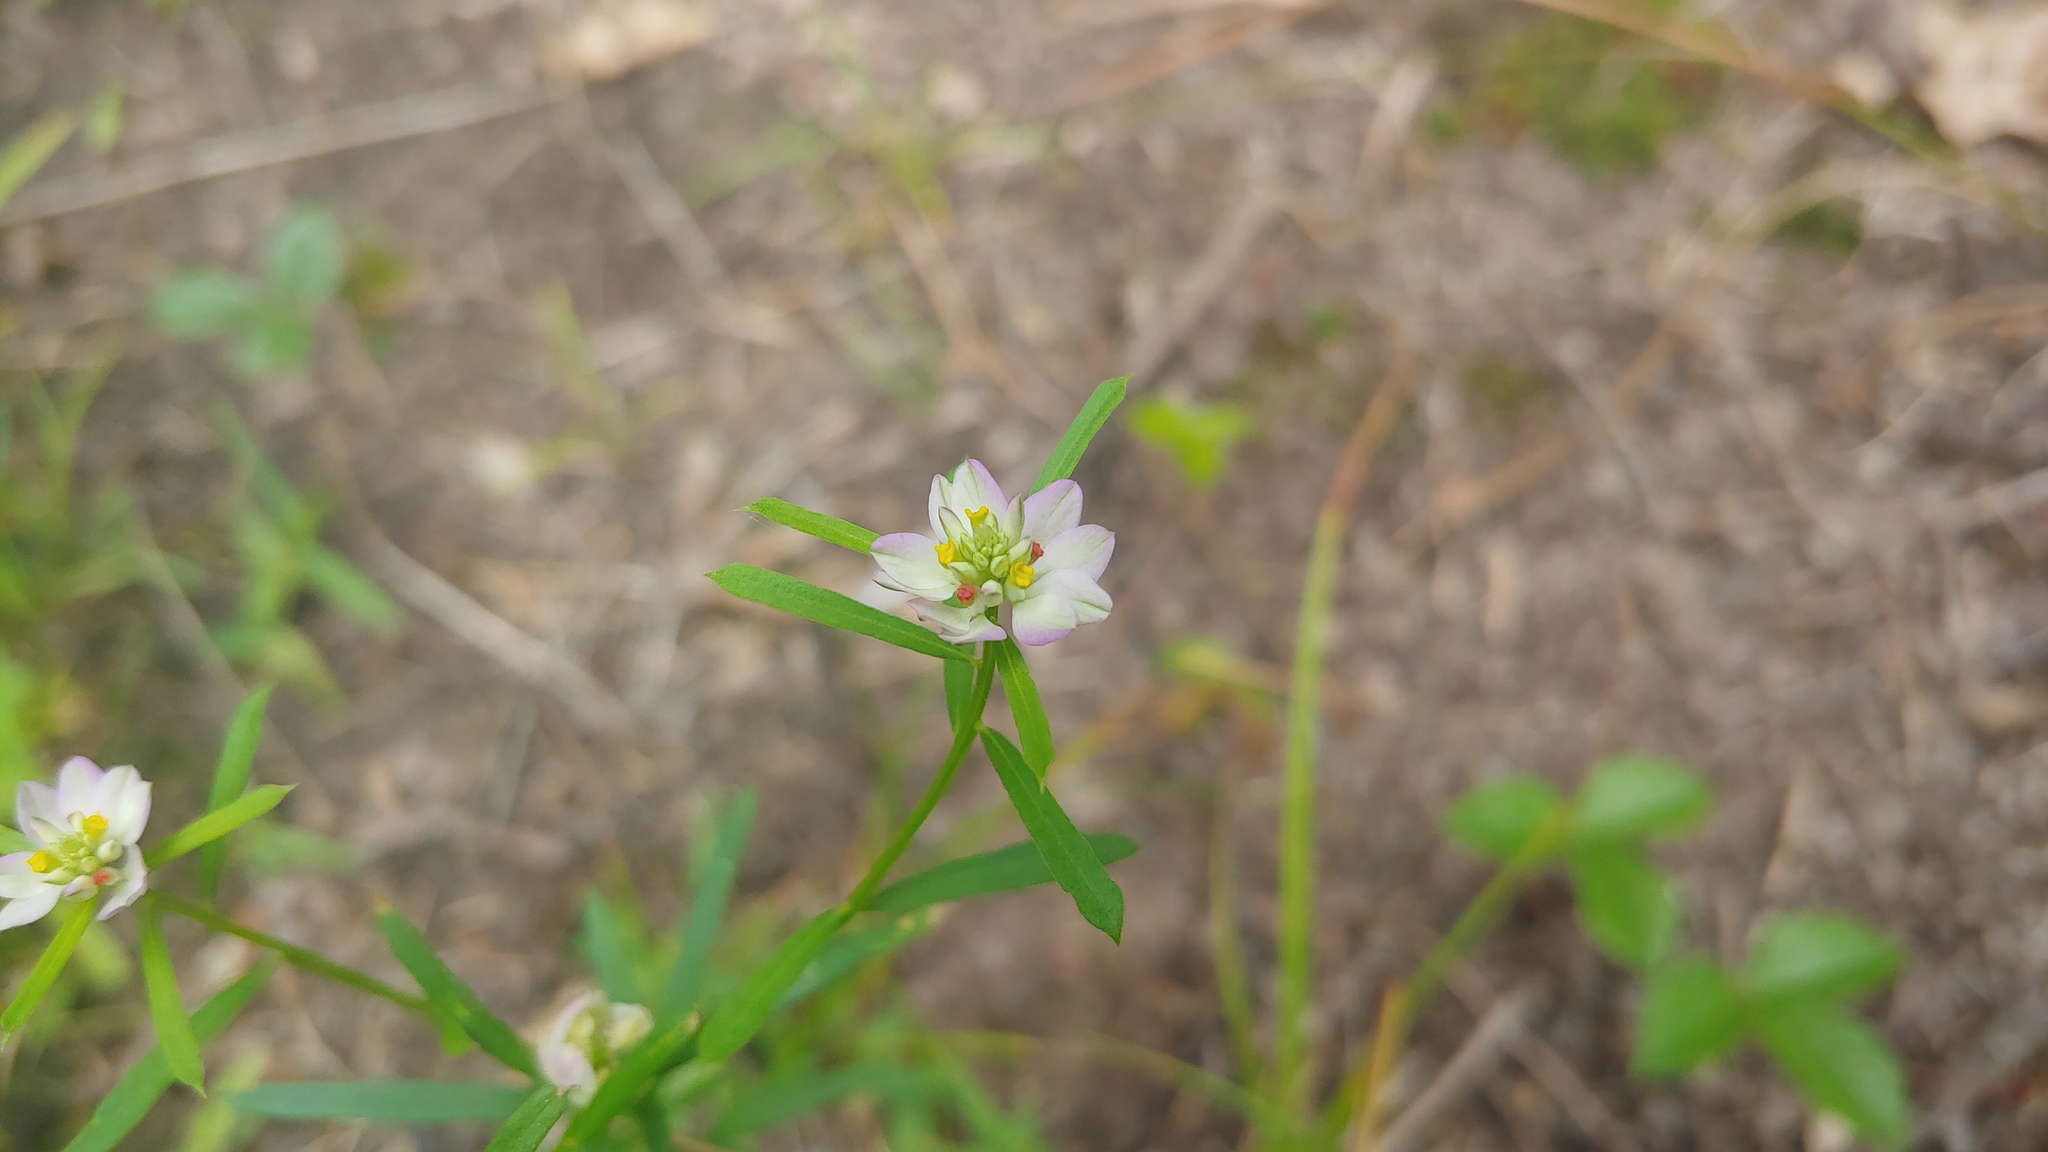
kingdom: Plantae
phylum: Tracheophyta
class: Magnoliopsida
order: Fabales
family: Polygalaceae
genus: Polygala
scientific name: Polygala sanguinea
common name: Blood milkwort
